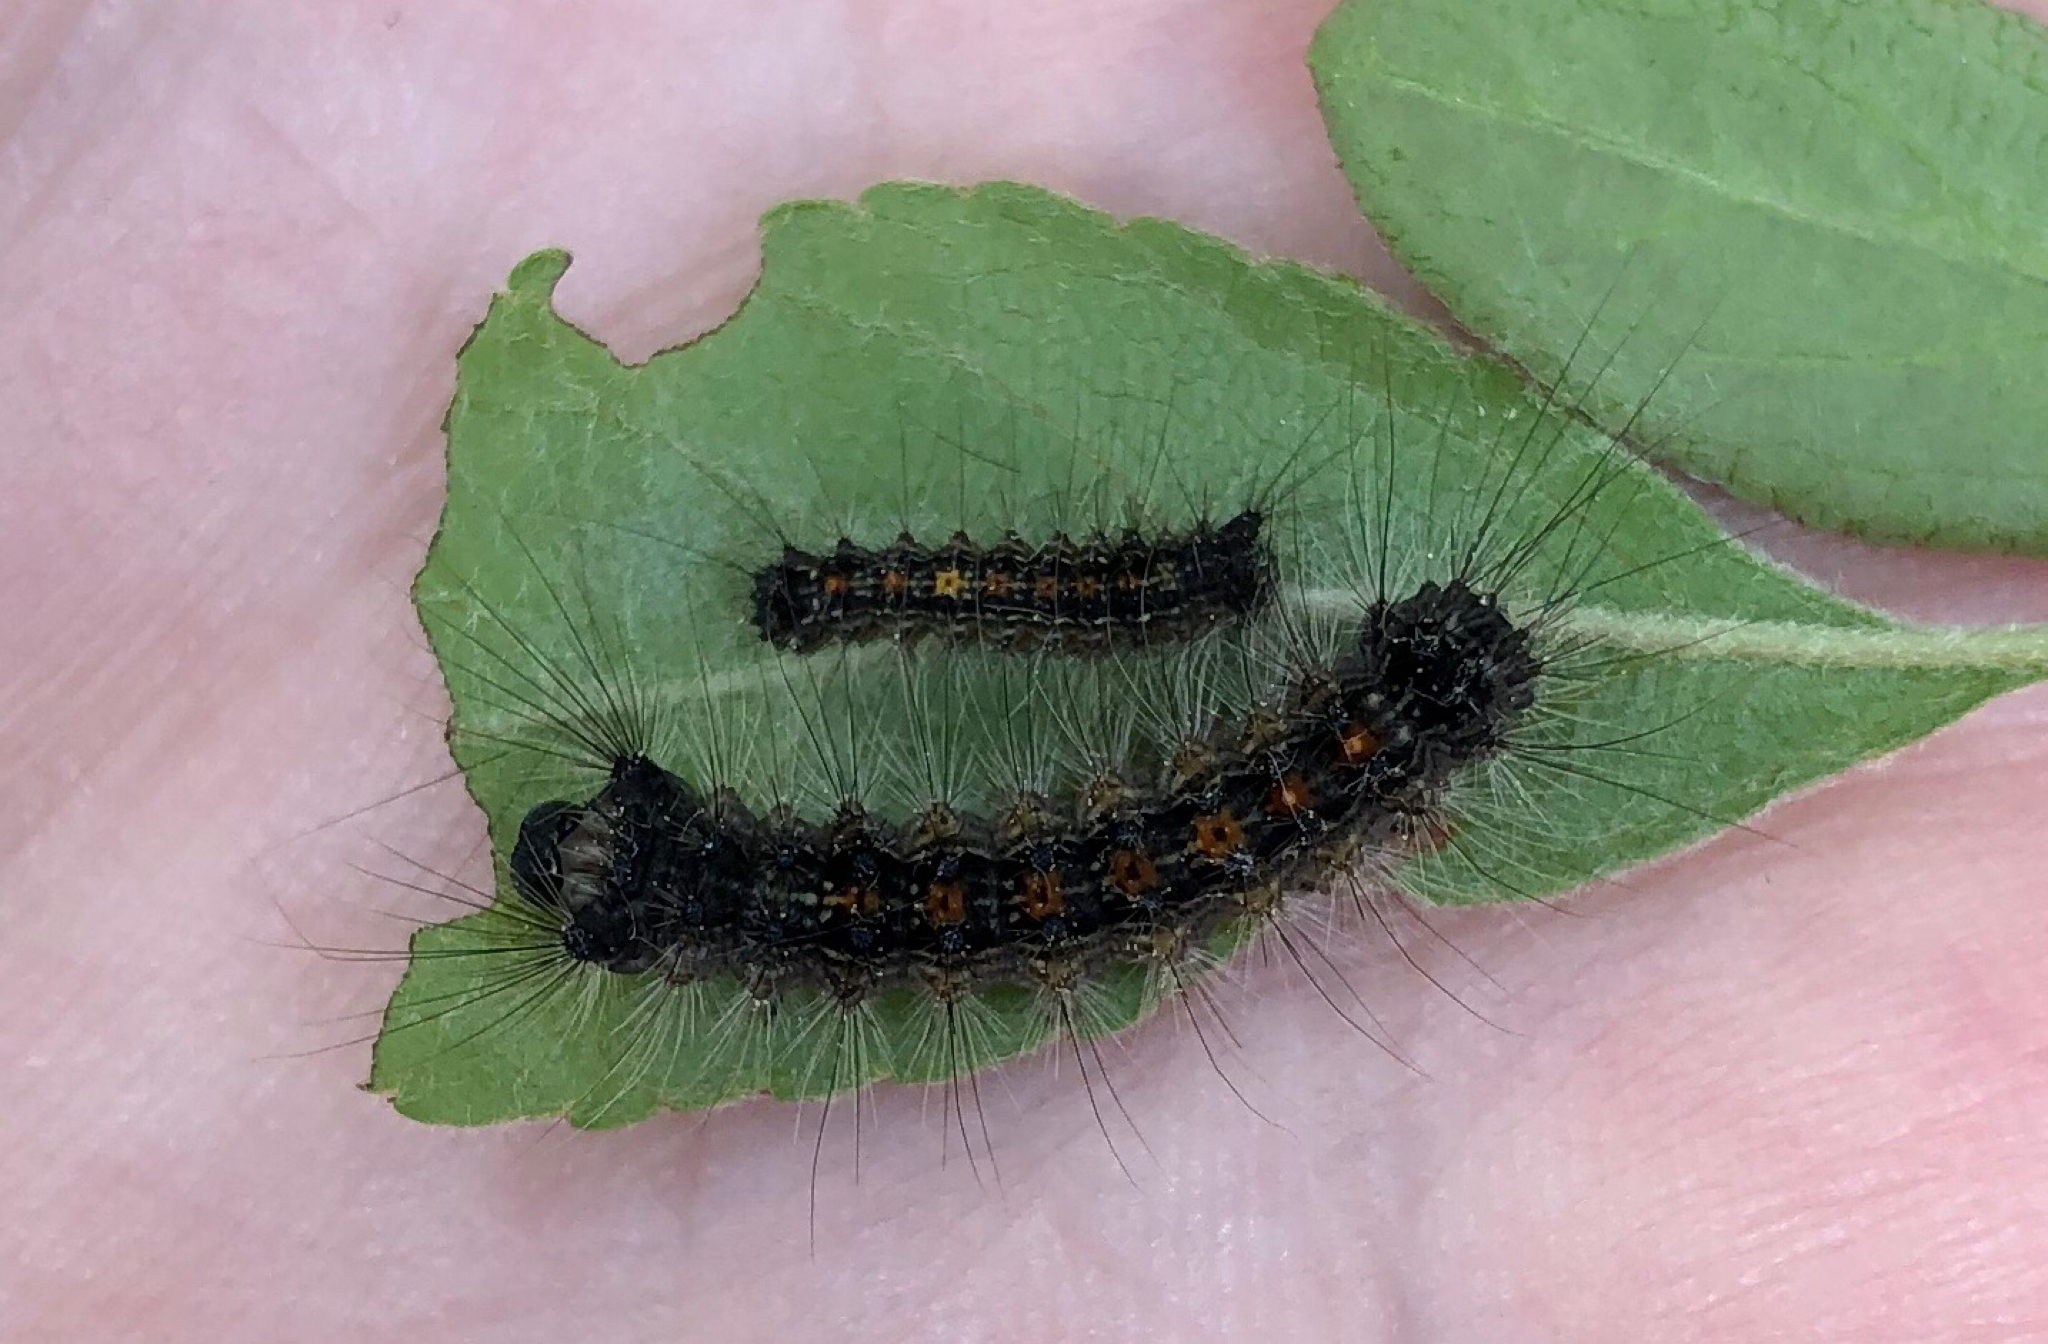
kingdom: Animalia
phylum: Arthropoda
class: Insecta
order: Lepidoptera
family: Erebidae
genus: Lymantria
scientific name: Lymantria dispar
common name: Gypsy moth
